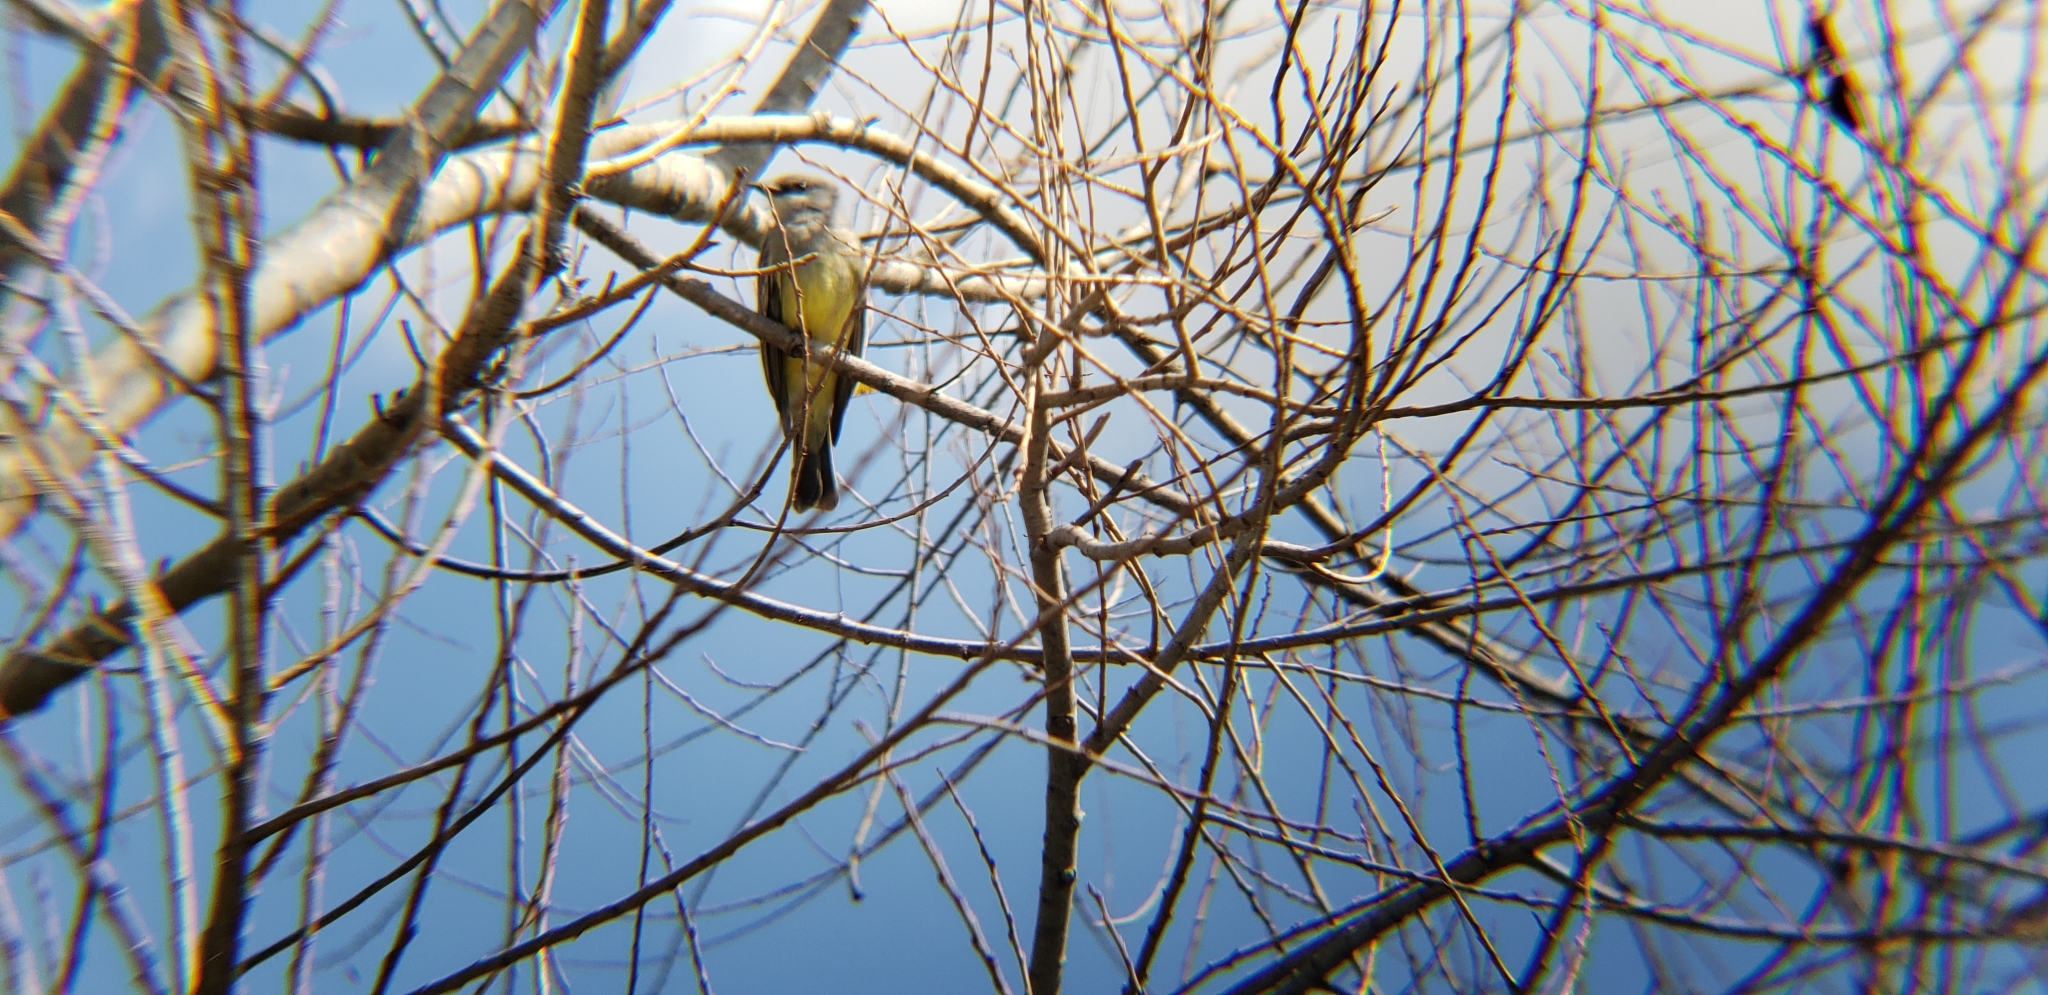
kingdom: Animalia
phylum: Chordata
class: Aves
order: Passeriformes
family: Tyrannidae
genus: Tyrannus
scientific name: Tyrannus vociferans
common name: Cassin's kingbird
